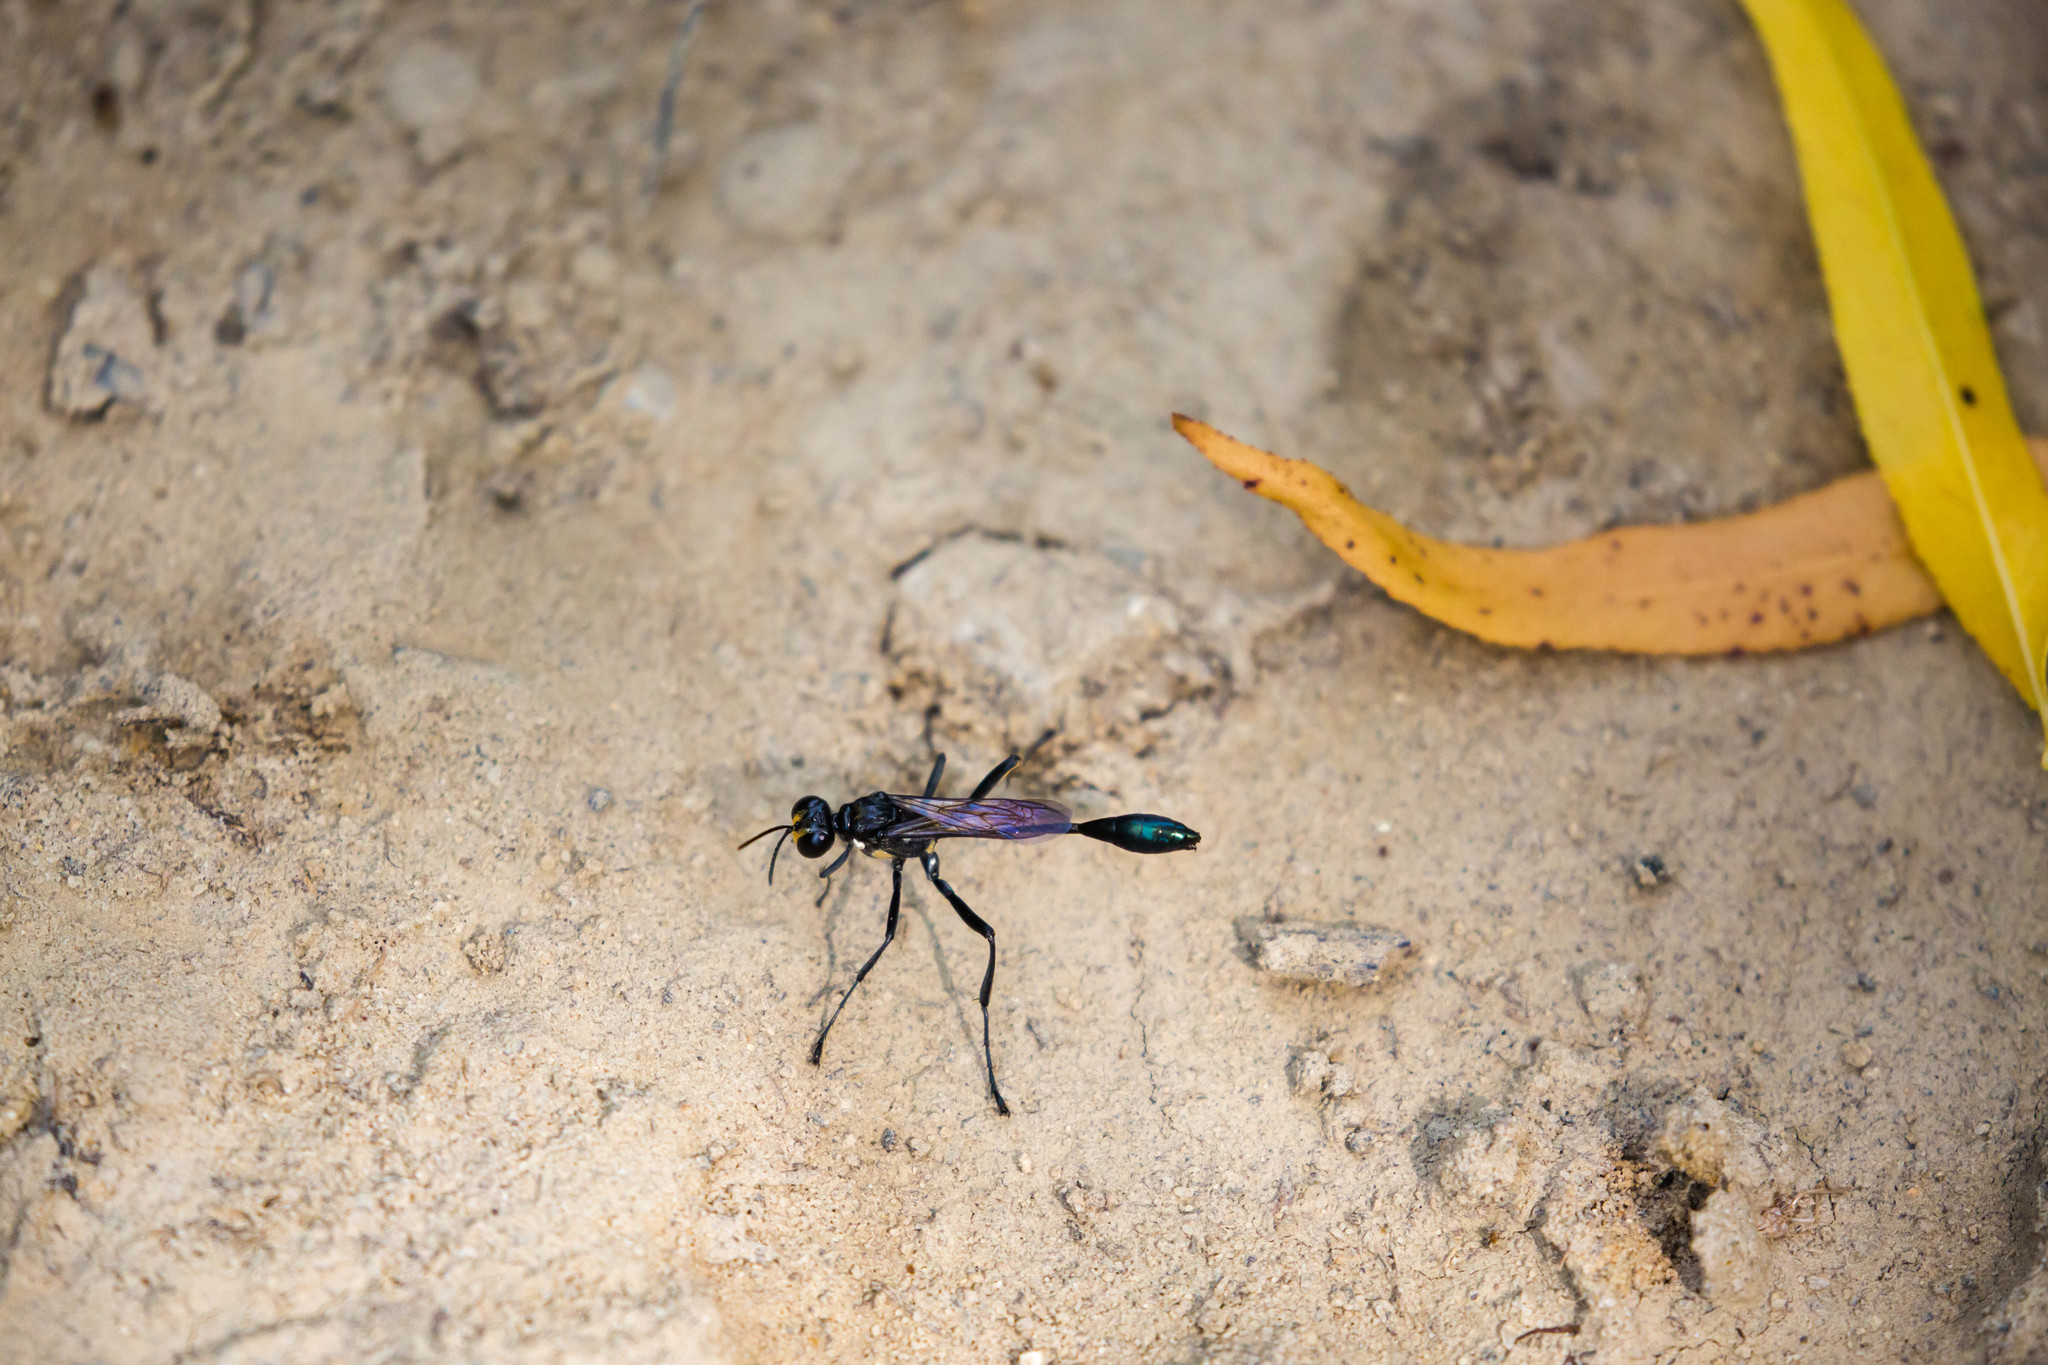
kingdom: Animalia
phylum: Arthropoda
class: Insecta
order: Hymenoptera
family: Sphecidae
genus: Eremnophila
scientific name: Eremnophila aureonotata
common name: Gold-marked thread-waisted wasp
